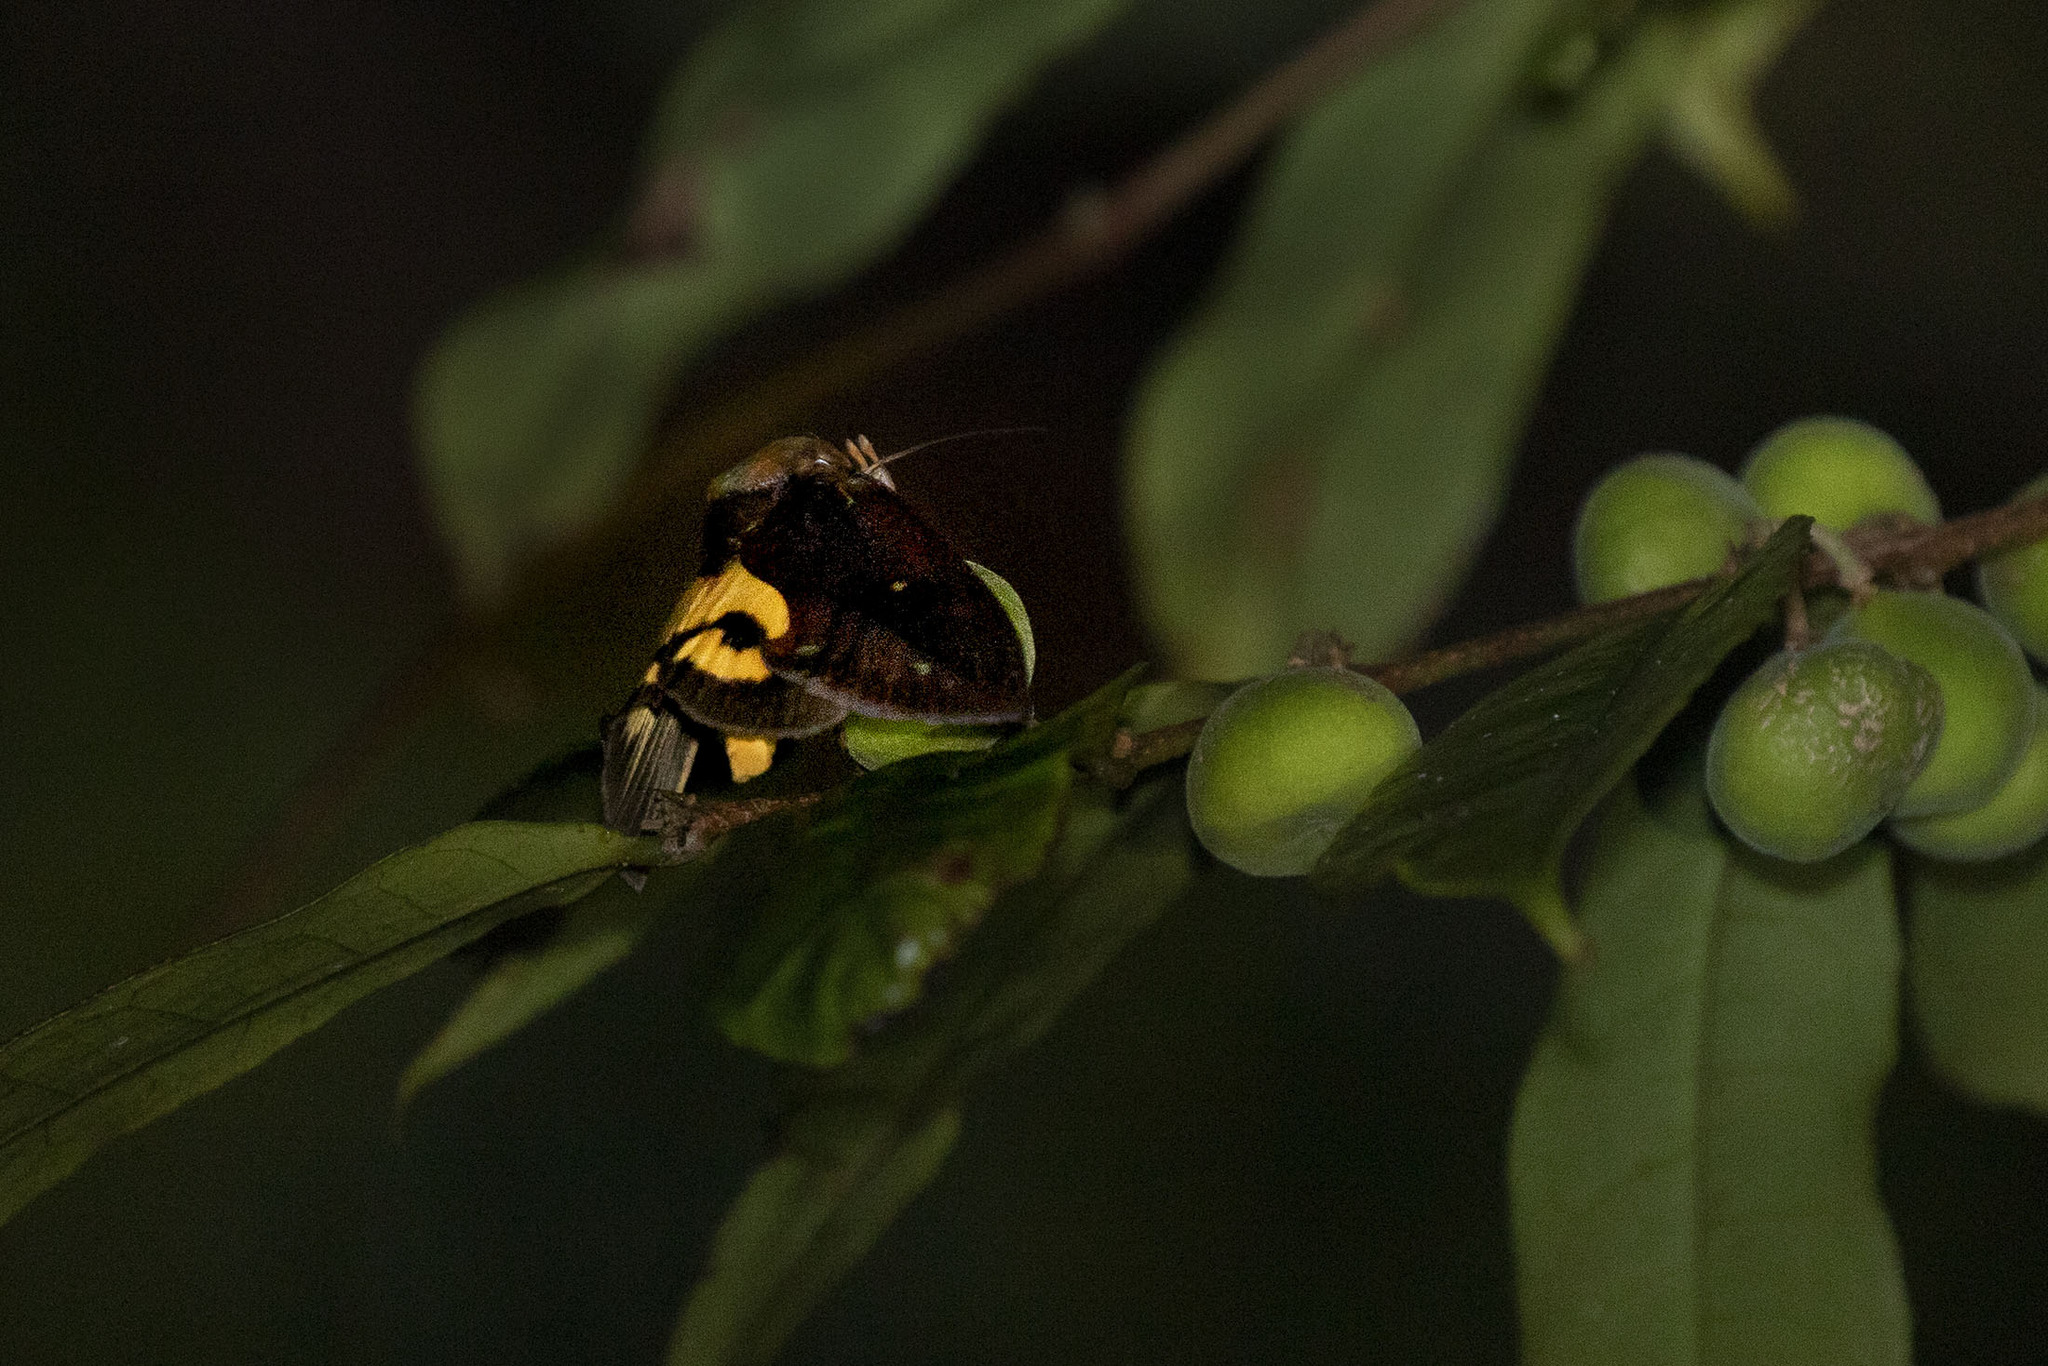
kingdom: Animalia
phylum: Arthropoda
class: Insecta
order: Lepidoptera
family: Erebidae
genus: Eudocima
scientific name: Eudocima boseae
